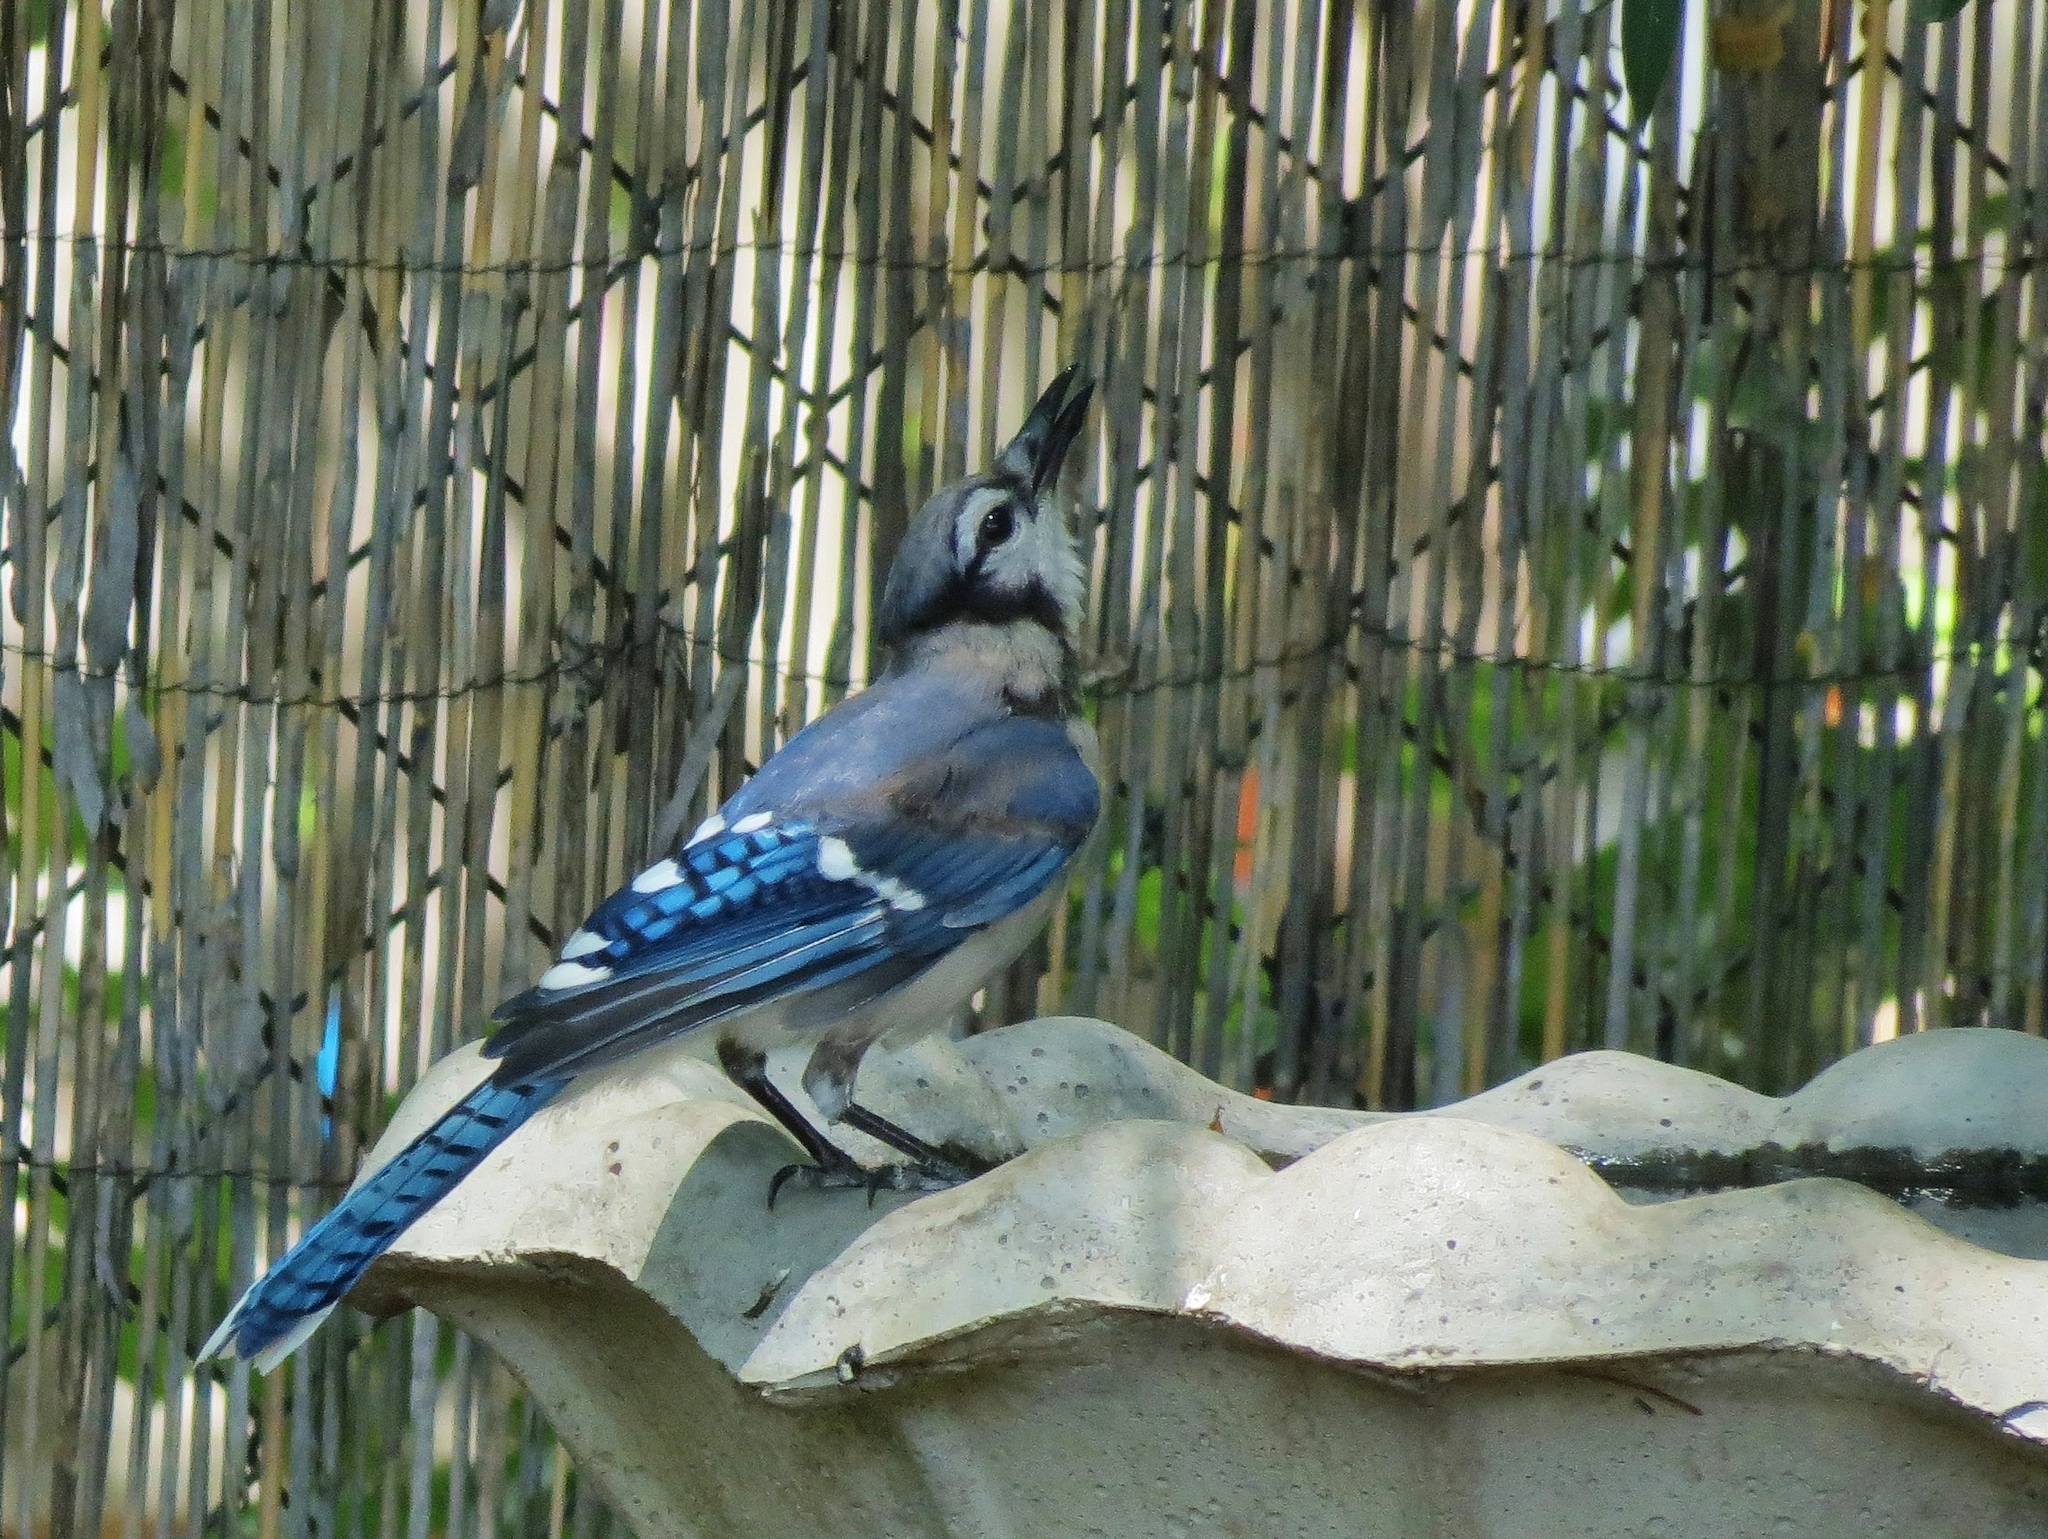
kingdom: Animalia
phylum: Chordata
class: Aves
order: Passeriformes
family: Corvidae
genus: Cyanocitta
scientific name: Cyanocitta cristata
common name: Blue jay
